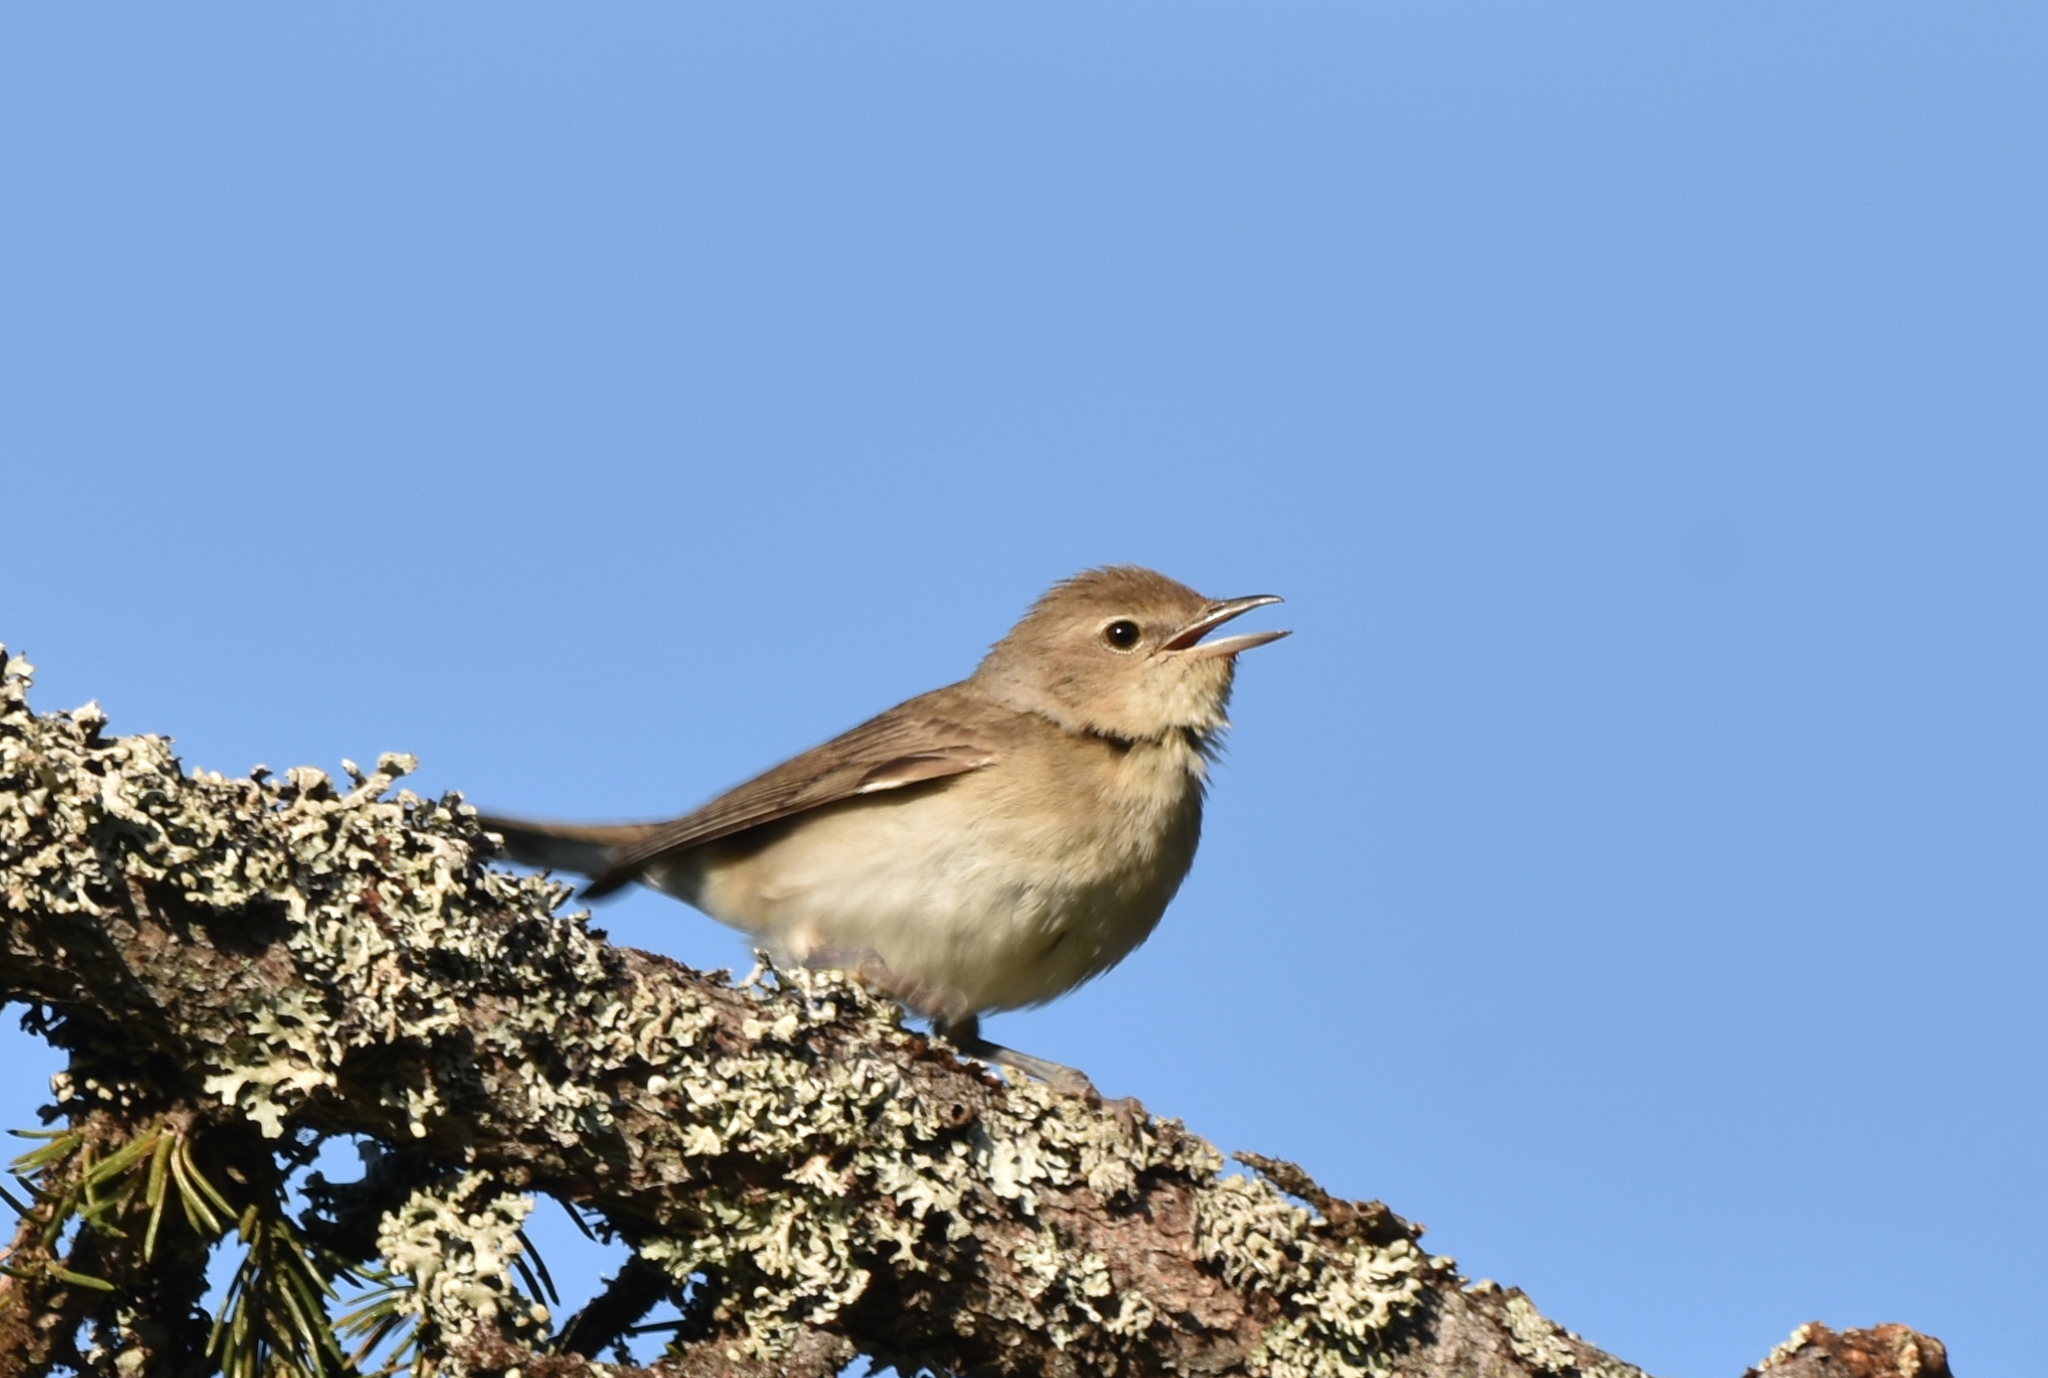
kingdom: Animalia
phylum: Chordata
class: Aves
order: Passeriformes
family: Sylviidae
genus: Sylvia
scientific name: Sylvia borin
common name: Garden warbler
